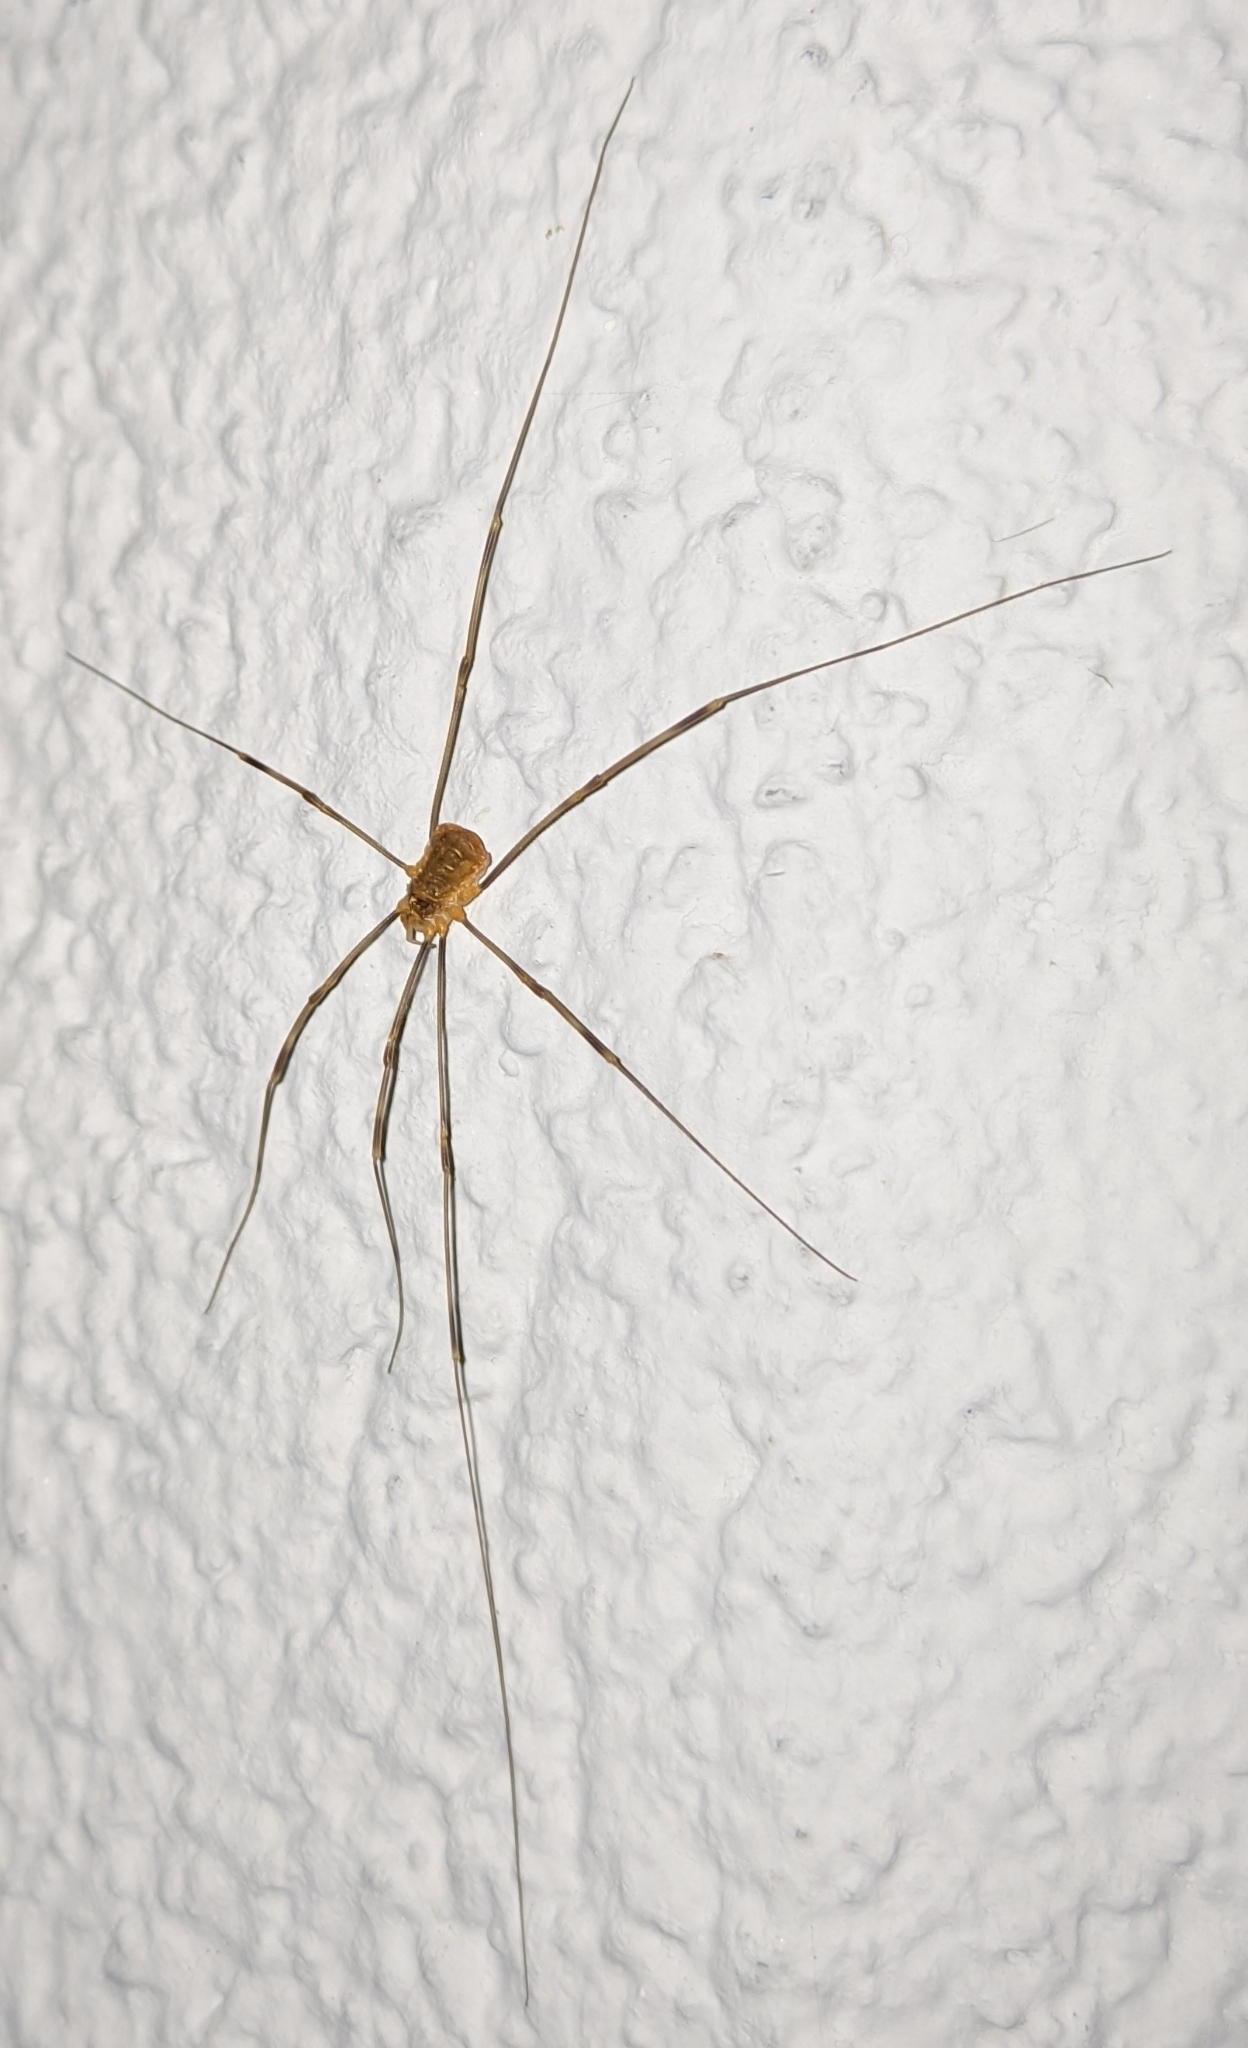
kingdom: Animalia
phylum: Arthropoda
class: Arachnida
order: Opiliones
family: Phalangiidae
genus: Opilio
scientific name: Opilio canestrinii
